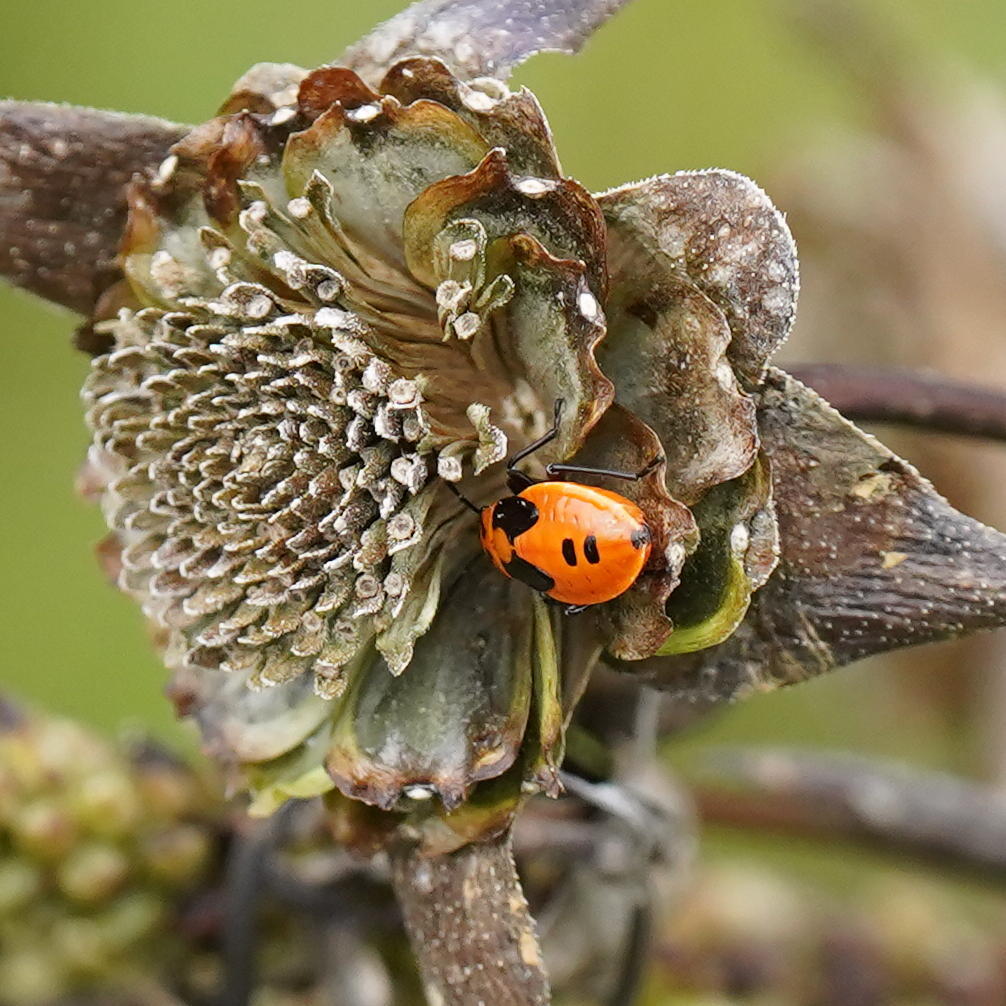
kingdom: Animalia
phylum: Arthropoda
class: Insecta
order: Hemiptera
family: Lygaeidae
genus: Lygaeus
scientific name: Lygaeus turcicus
